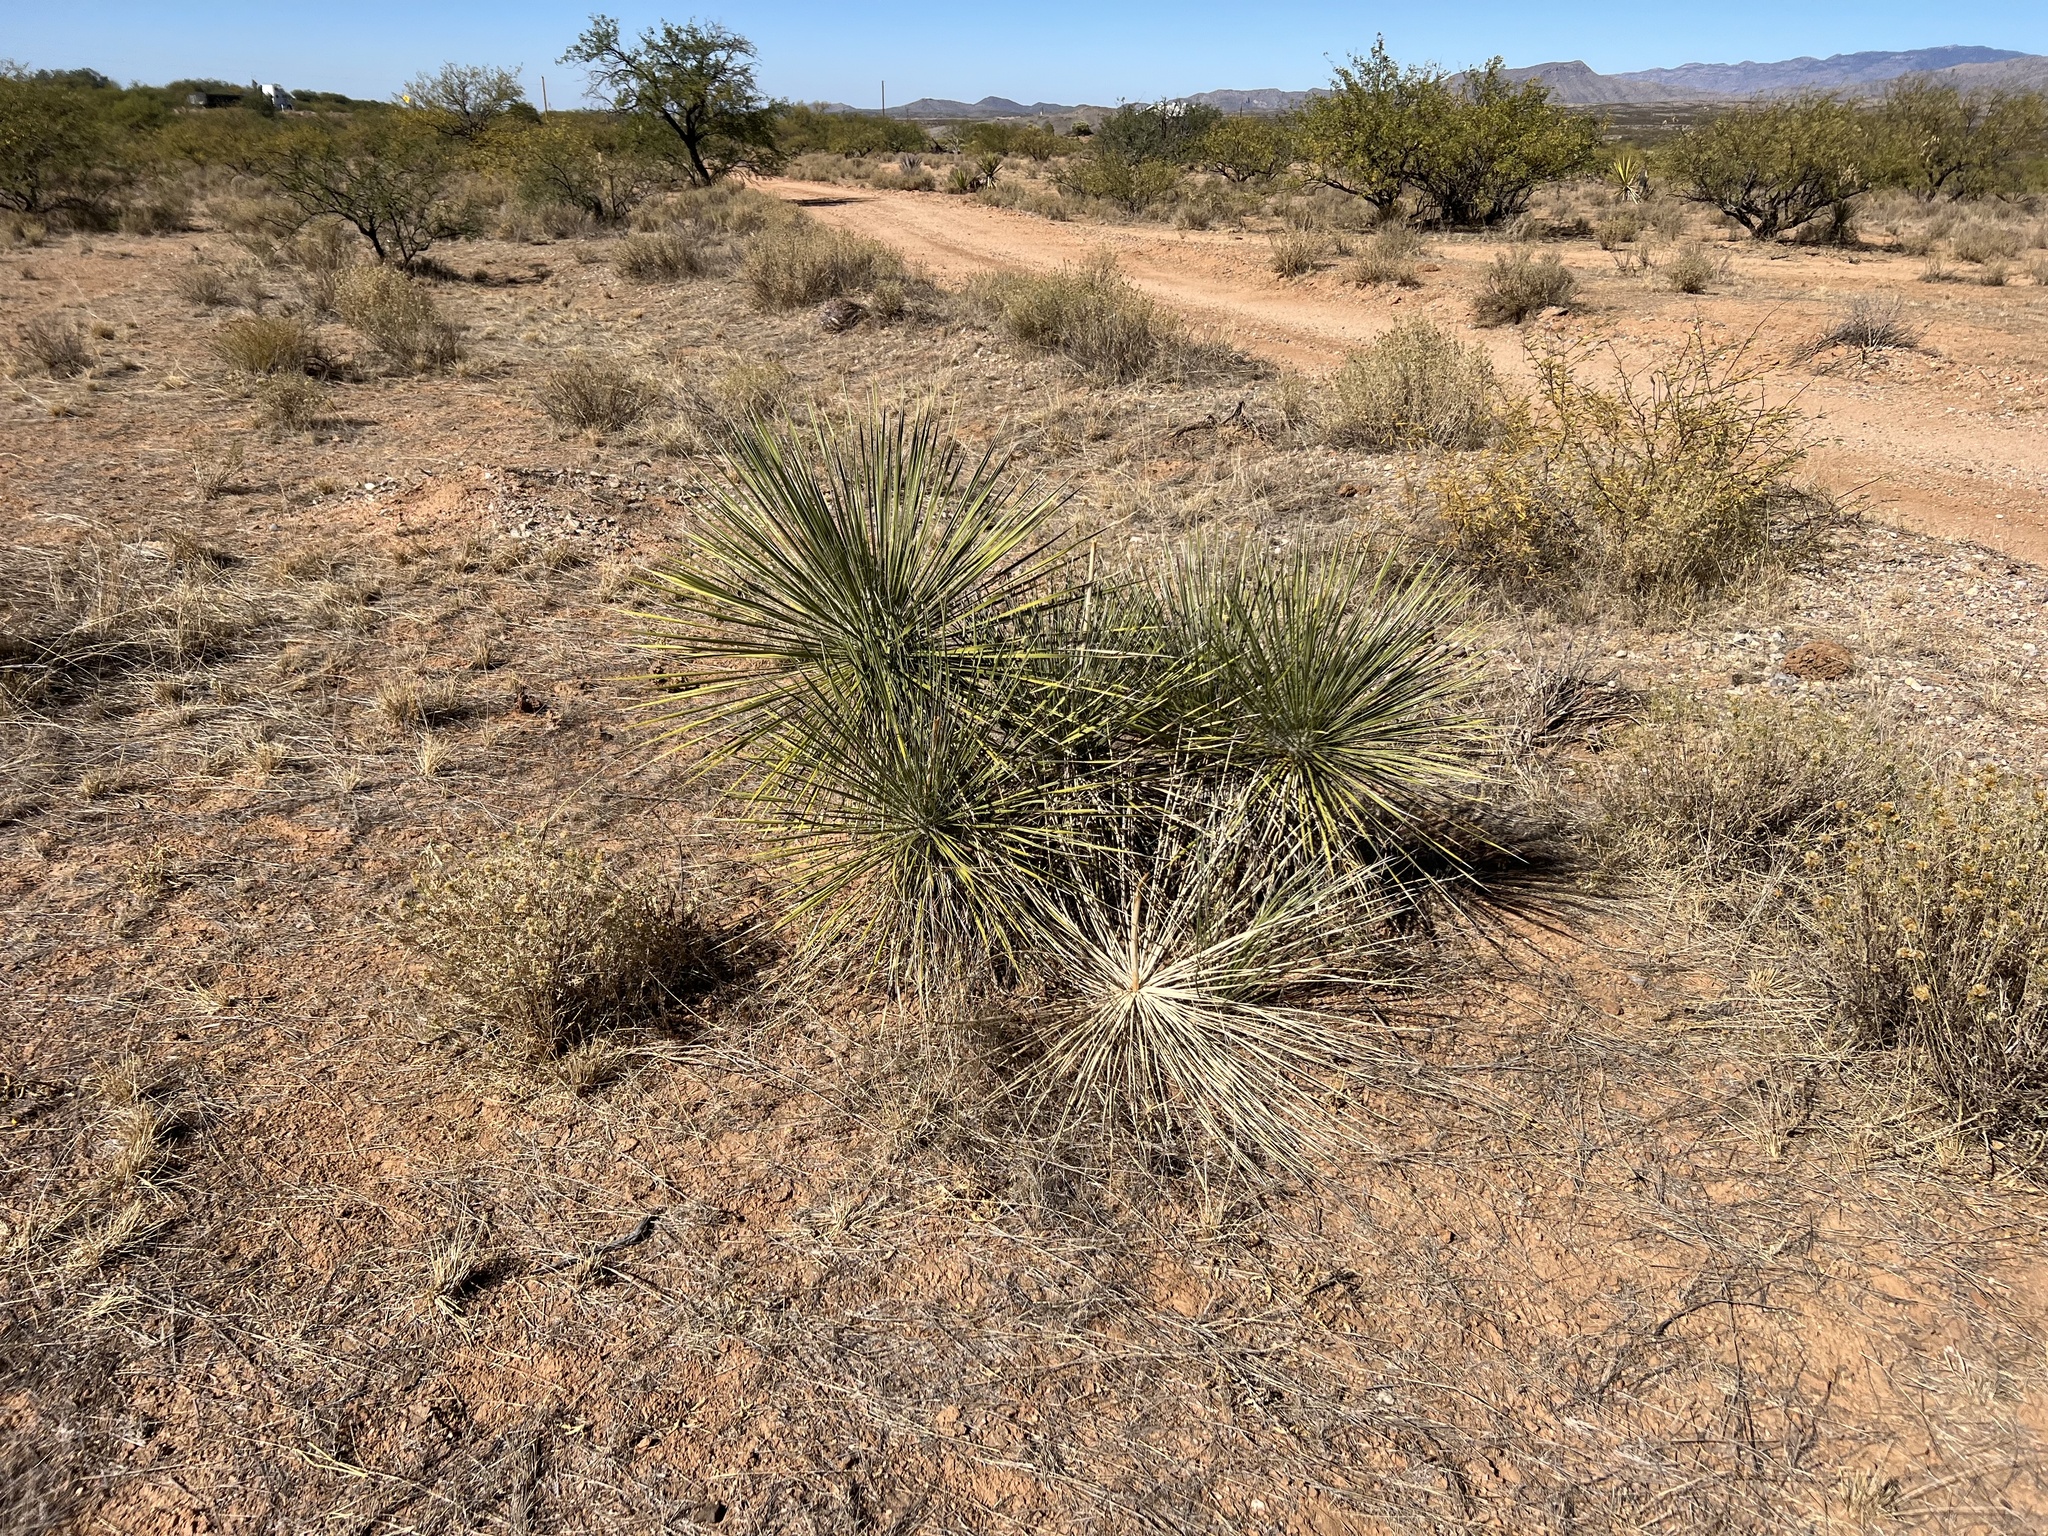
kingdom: Plantae
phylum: Tracheophyta
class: Liliopsida
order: Asparagales
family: Asparagaceae
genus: Yucca
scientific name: Yucca elata
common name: Palmella
